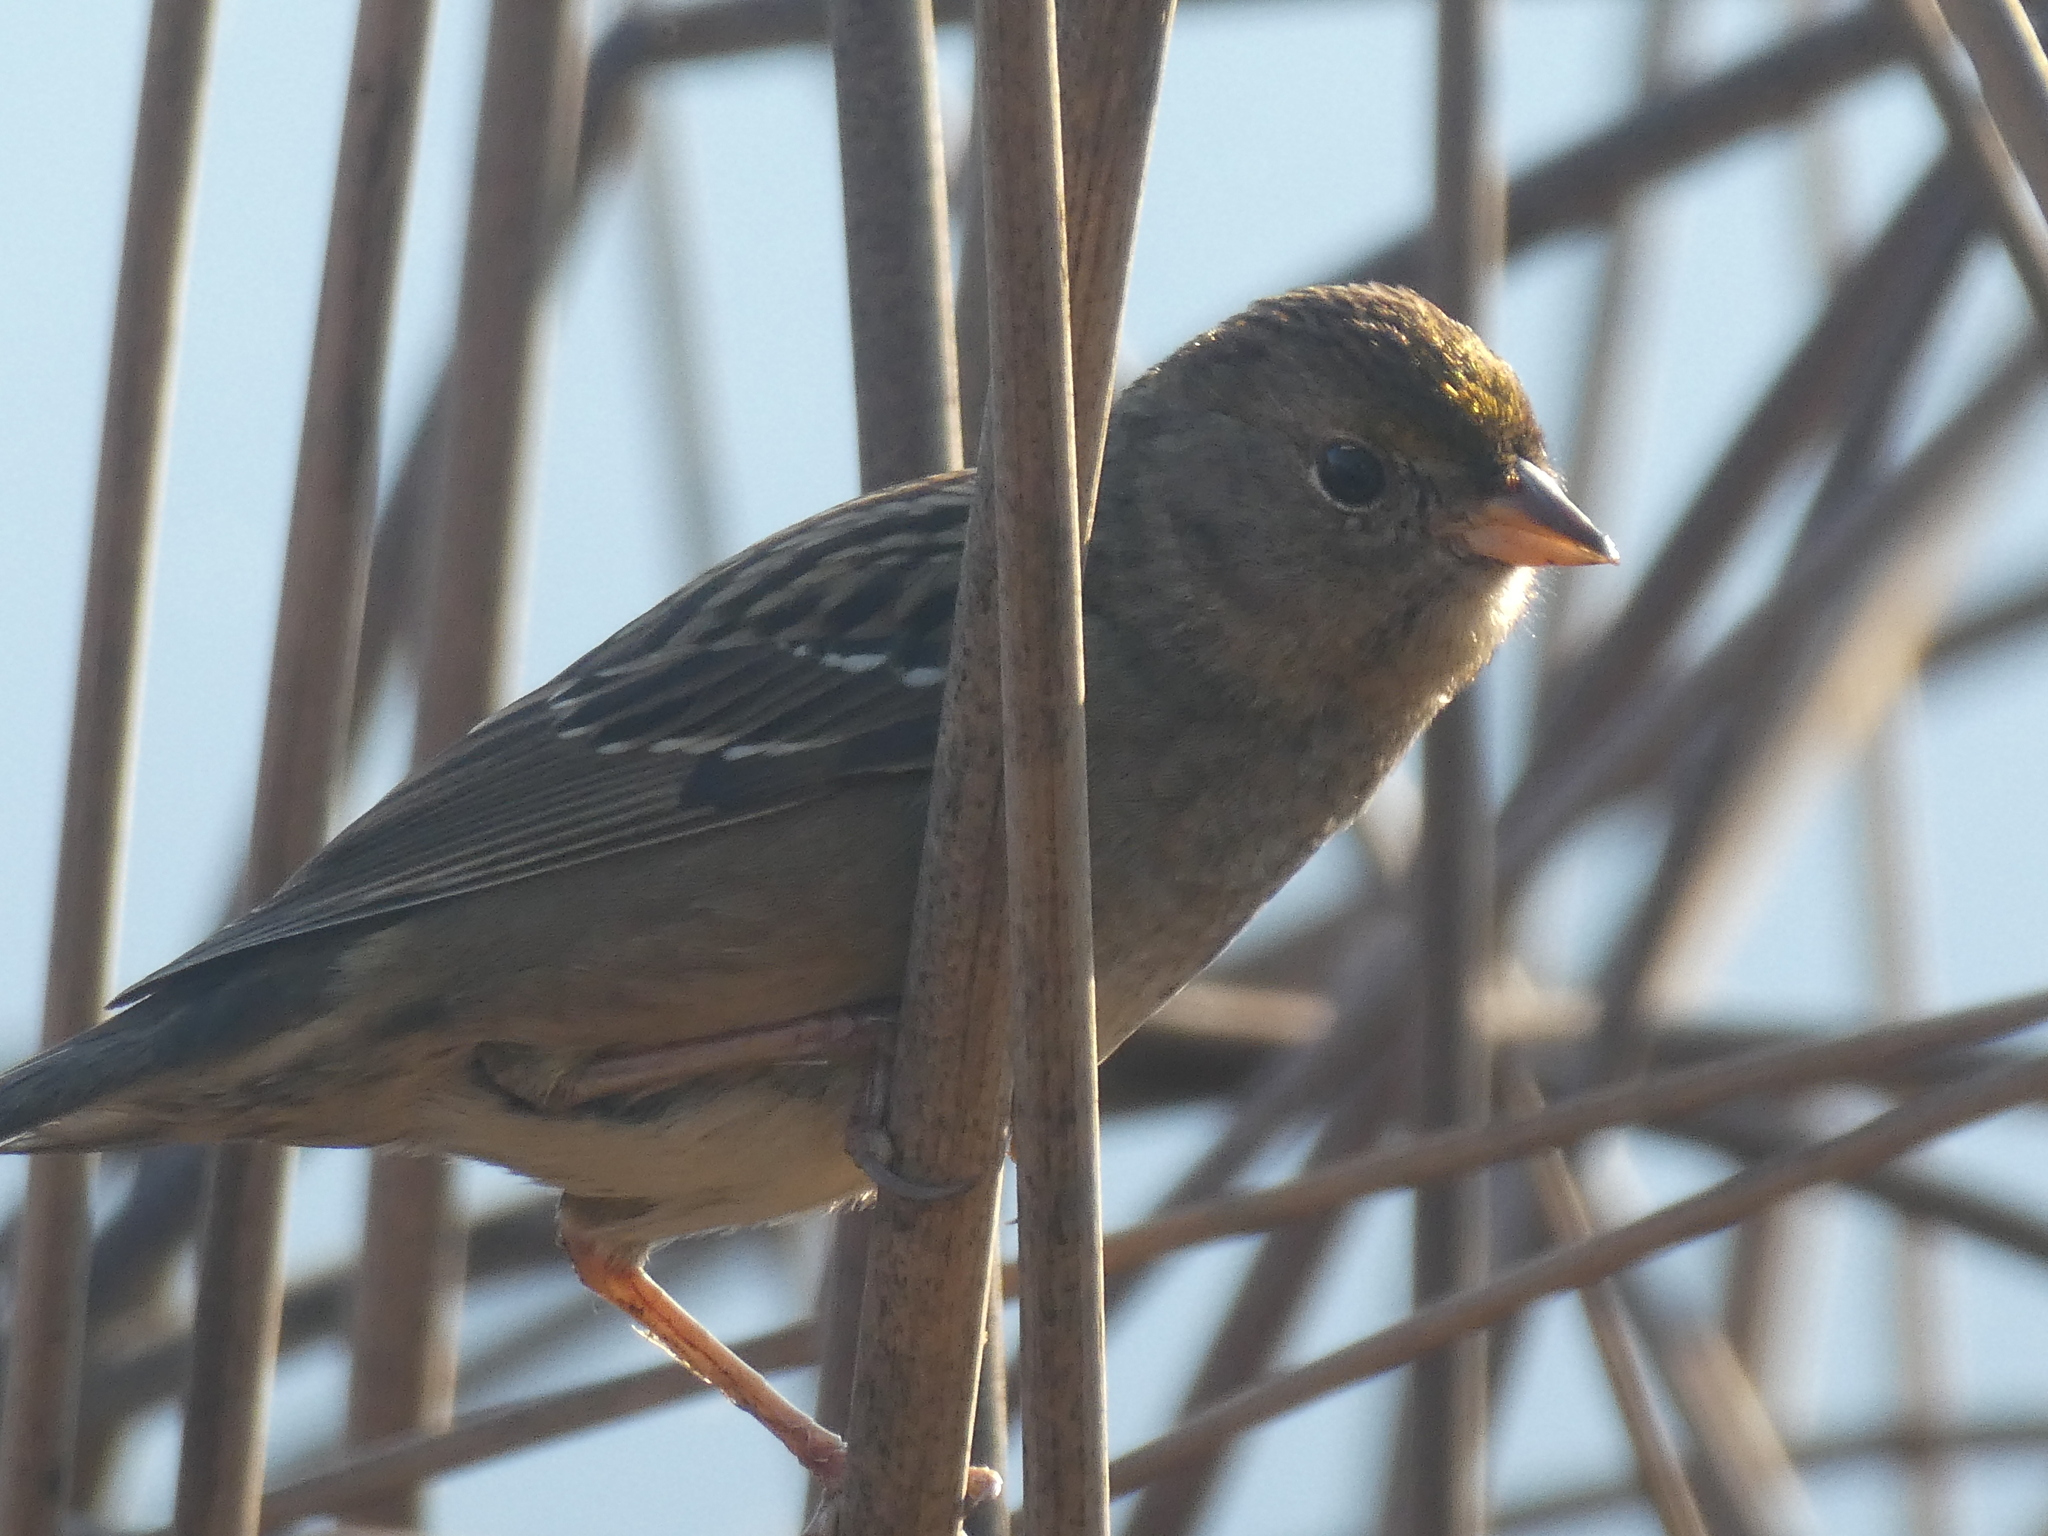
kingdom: Animalia
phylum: Chordata
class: Aves
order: Passeriformes
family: Passerellidae
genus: Zonotrichia
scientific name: Zonotrichia atricapilla
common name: Golden-crowned sparrow
